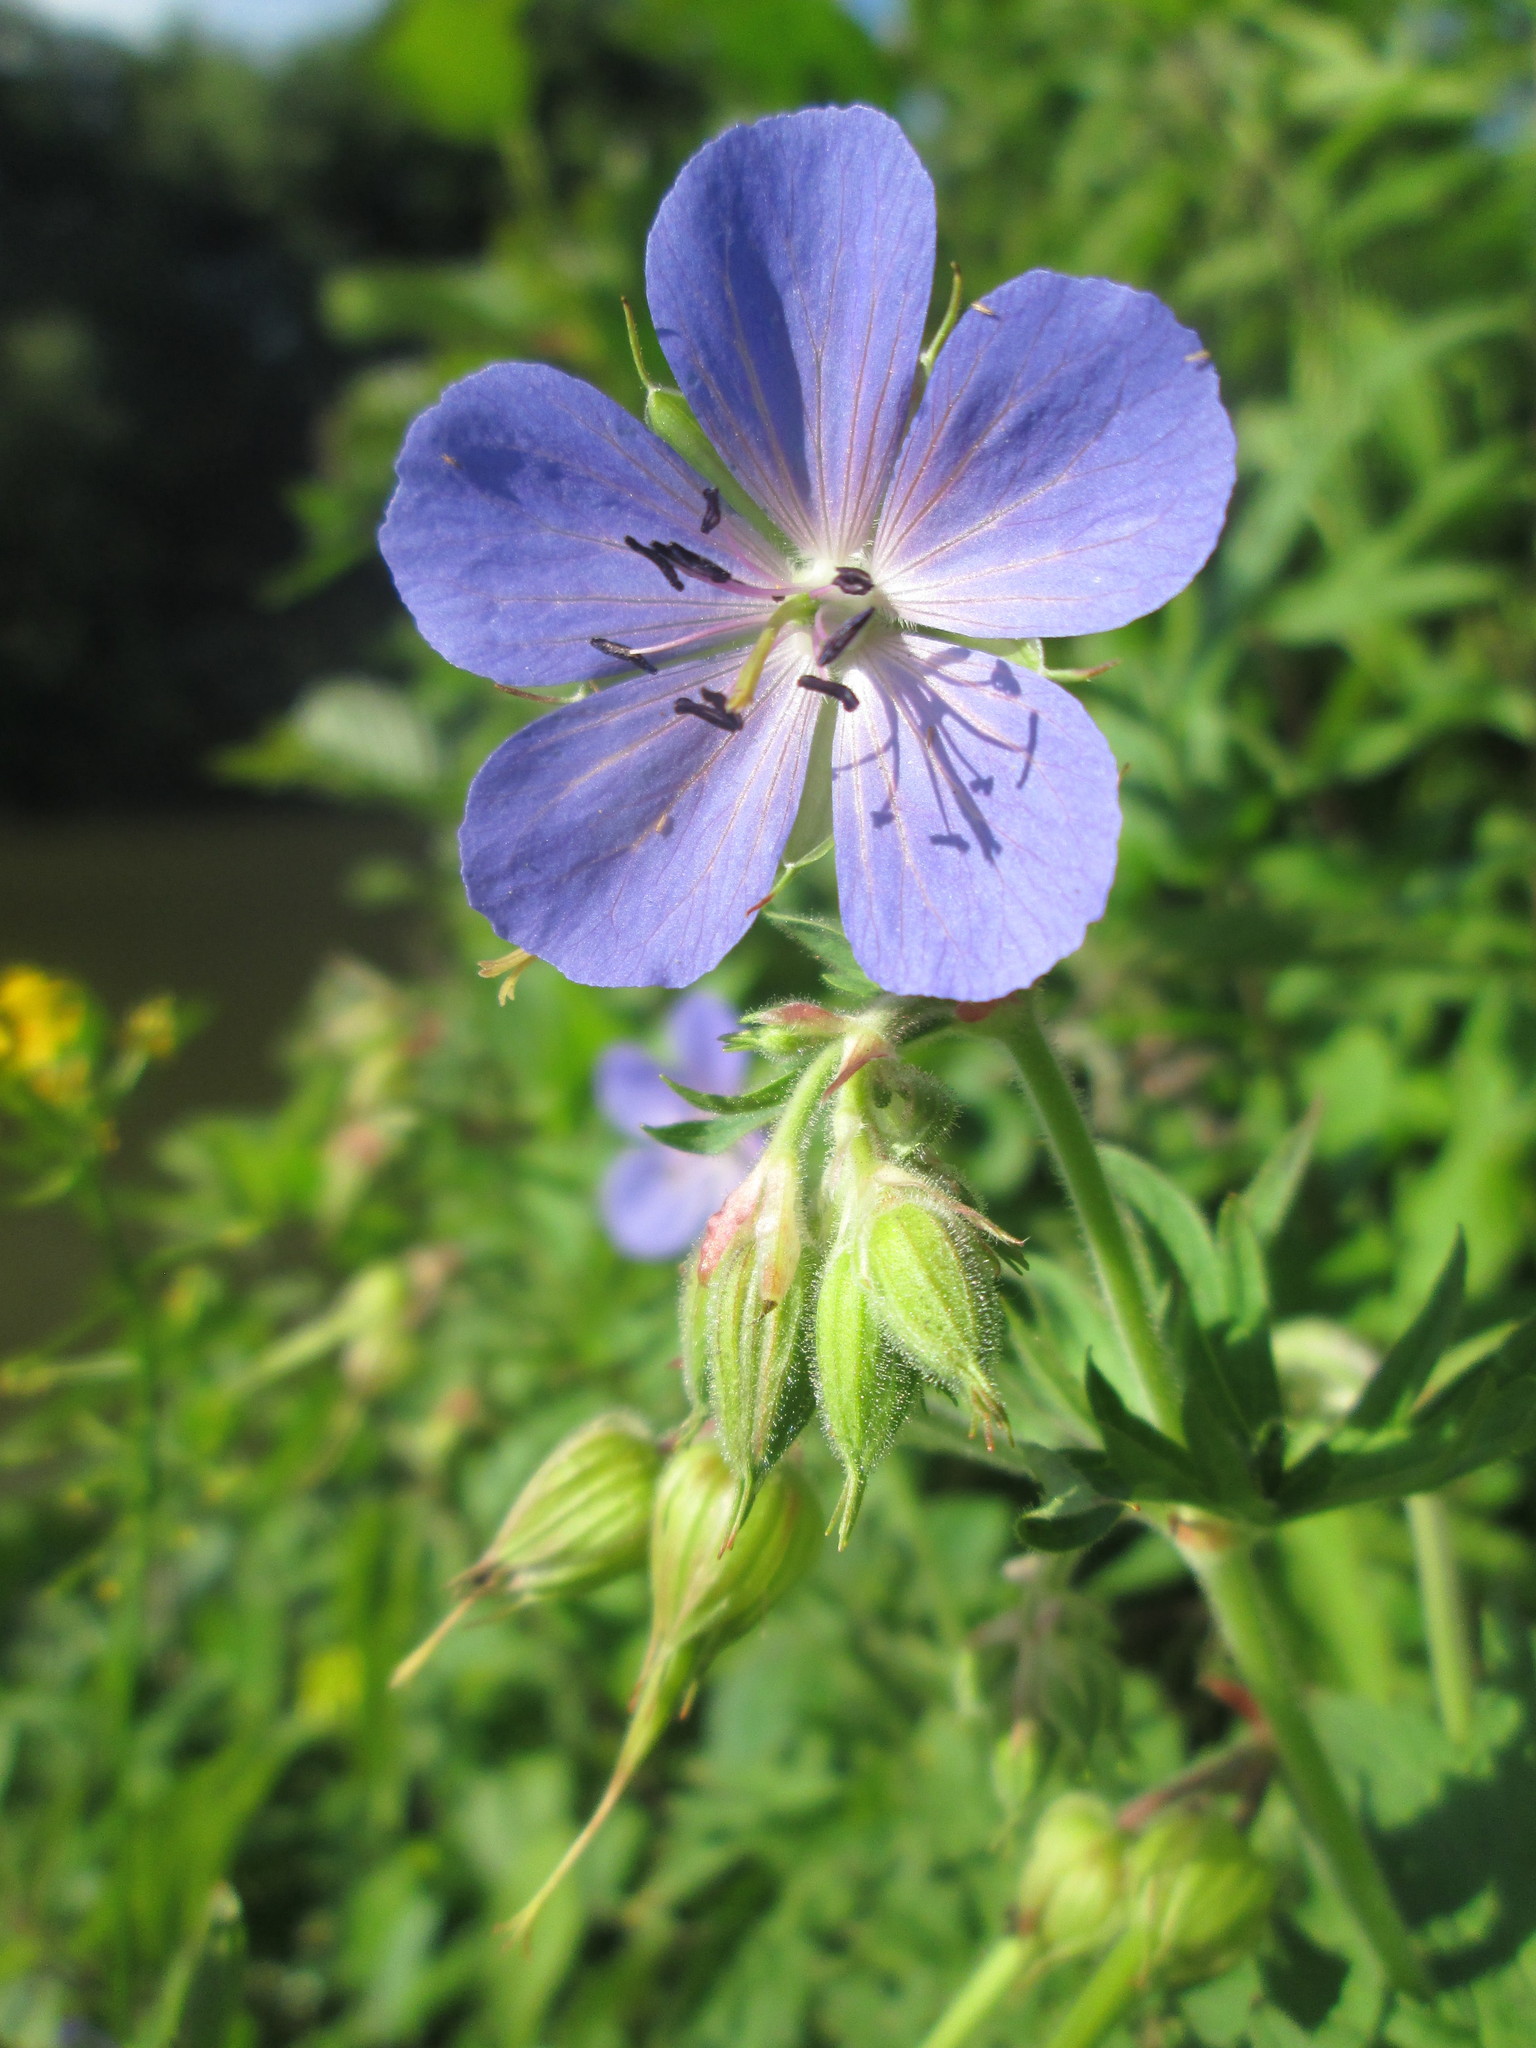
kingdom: Plantae
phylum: Tracheophyta
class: Magnoliopsida
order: Geraniales
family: Geraniaceae
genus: Geranium
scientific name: Geranium pratense
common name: Meadow crane's-bill
